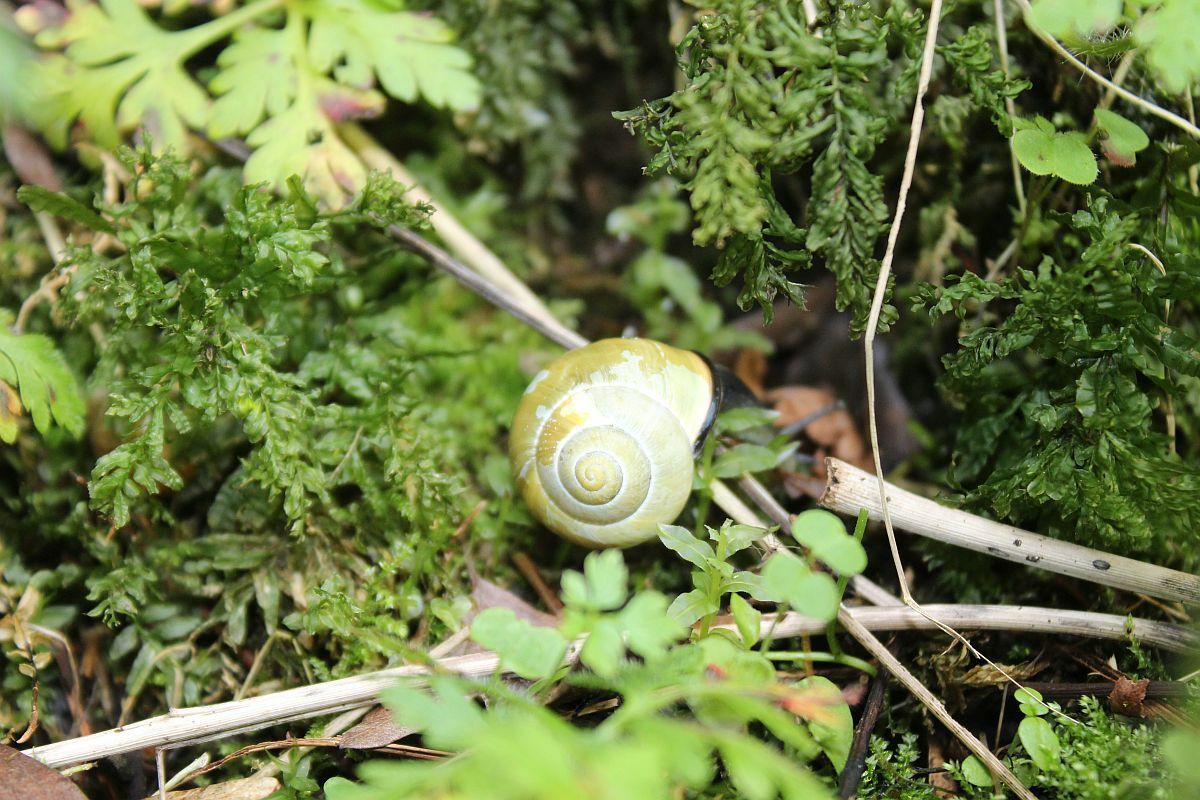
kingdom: Animalia
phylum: Mollusca
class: Gastropoda
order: Stylommatophora
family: Helicidae
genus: Cepaea
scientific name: Cepaea nemoralis
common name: Grovesnail
